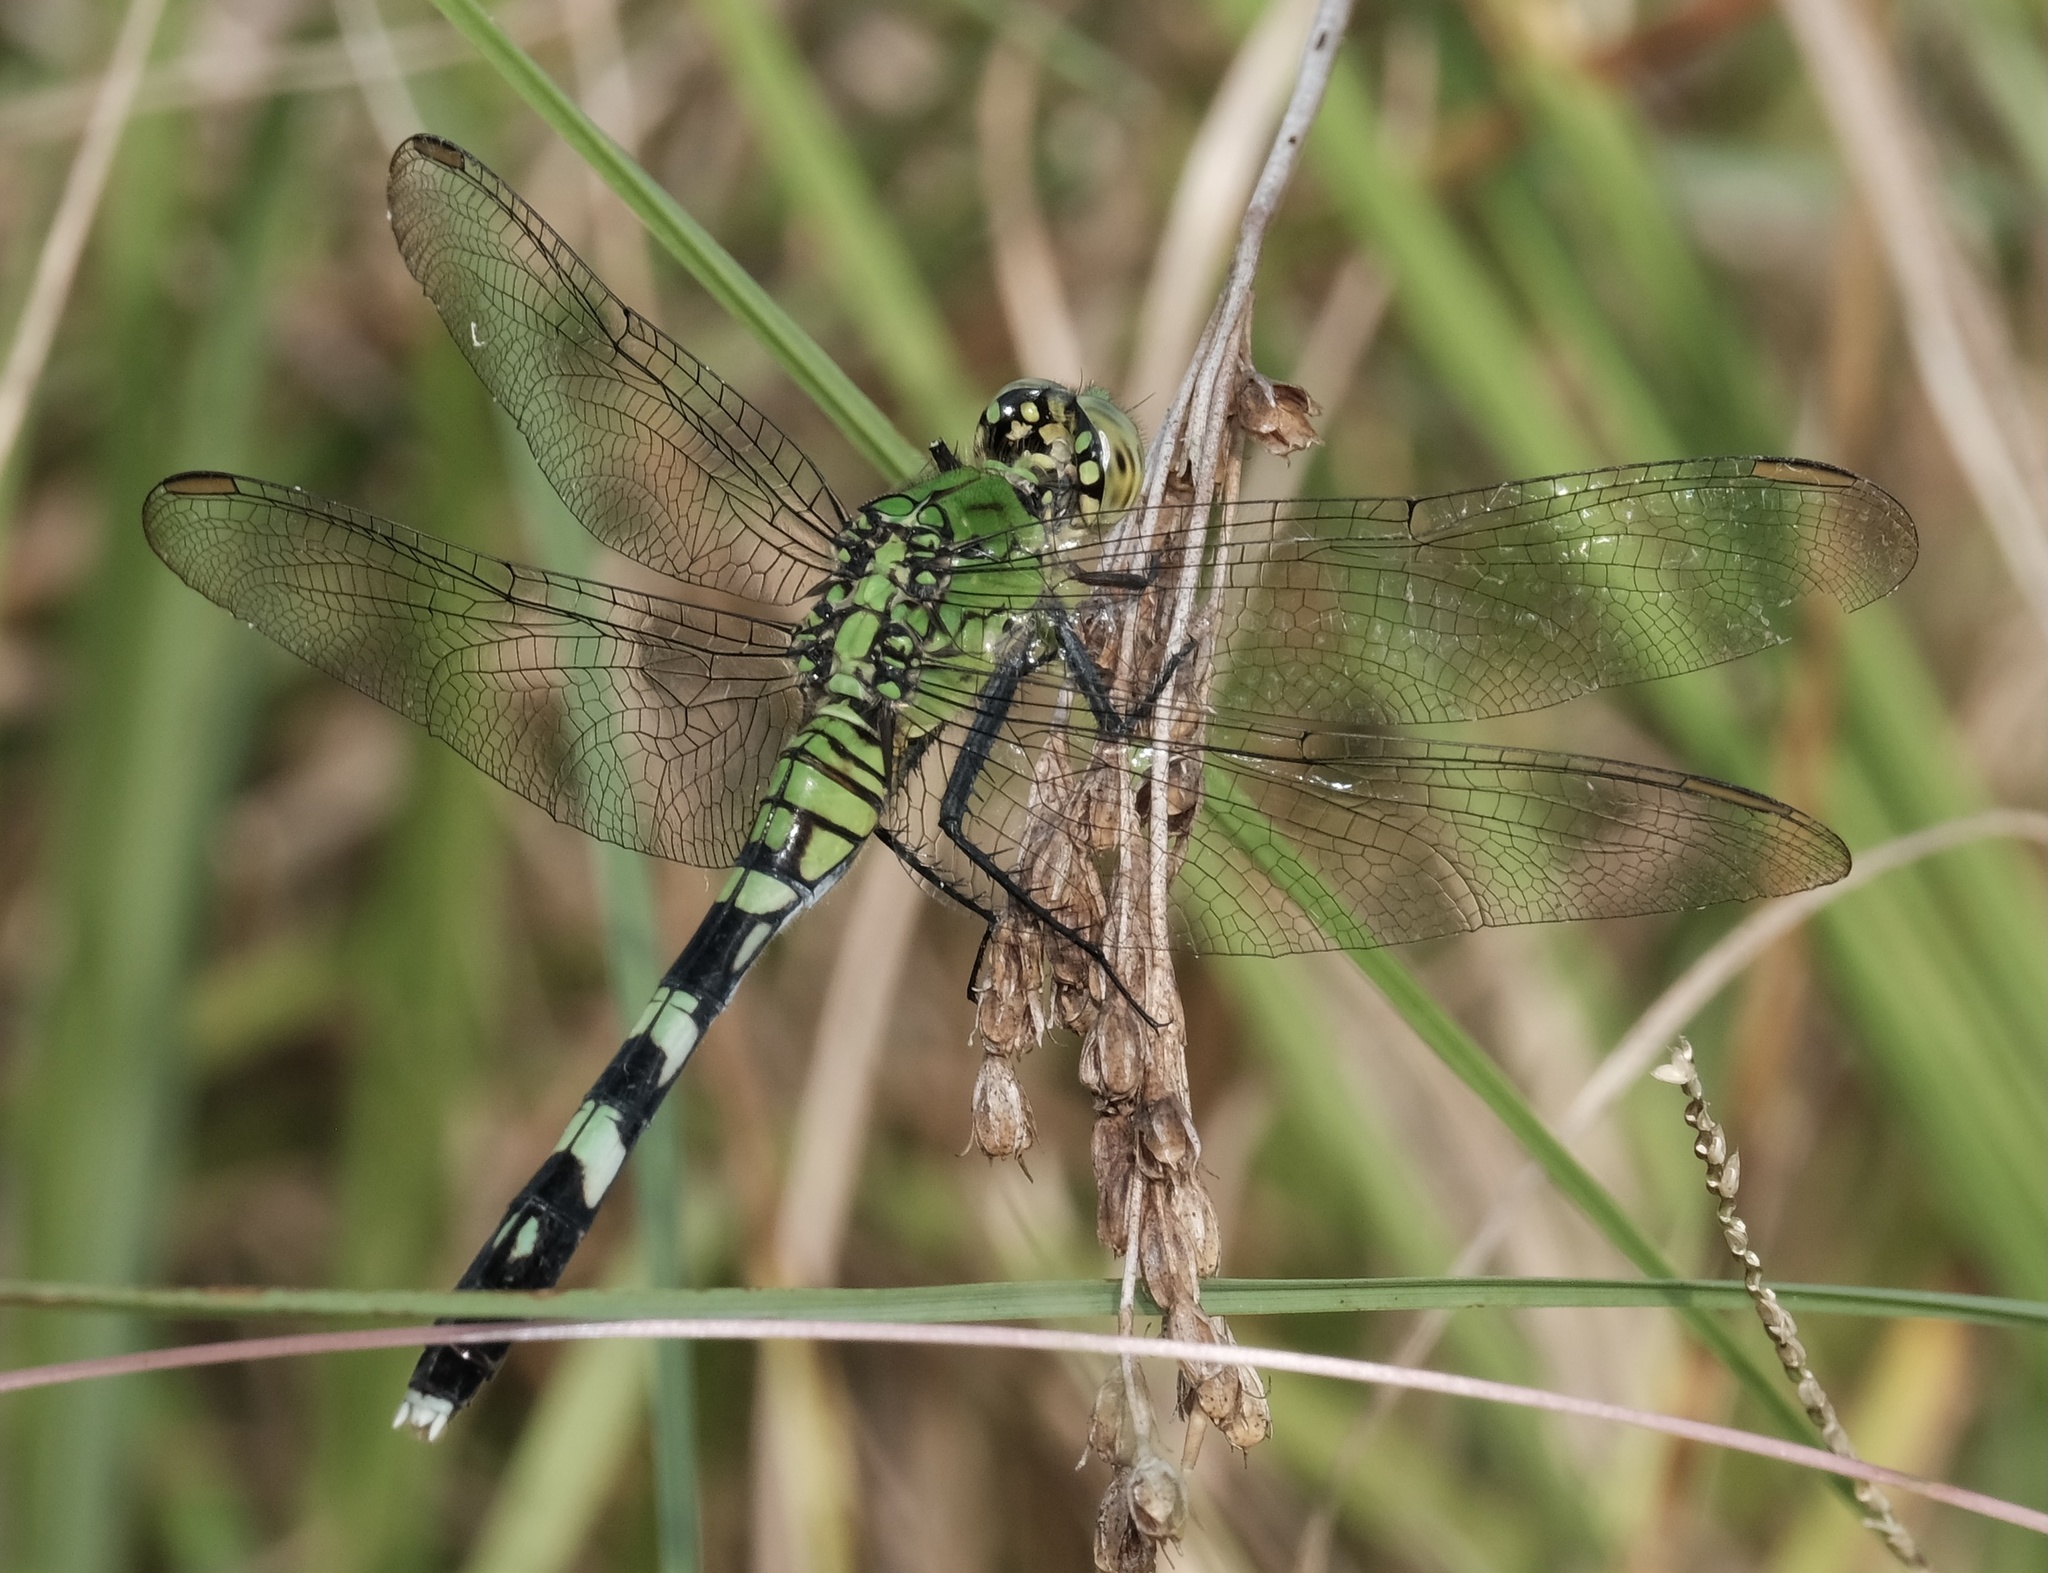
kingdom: Animalia
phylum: Arthropoda
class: Insecta
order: Odonata
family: Libellulidae
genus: Erythemis
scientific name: Erythemis simplicicollis
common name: Eastern pondhawk
